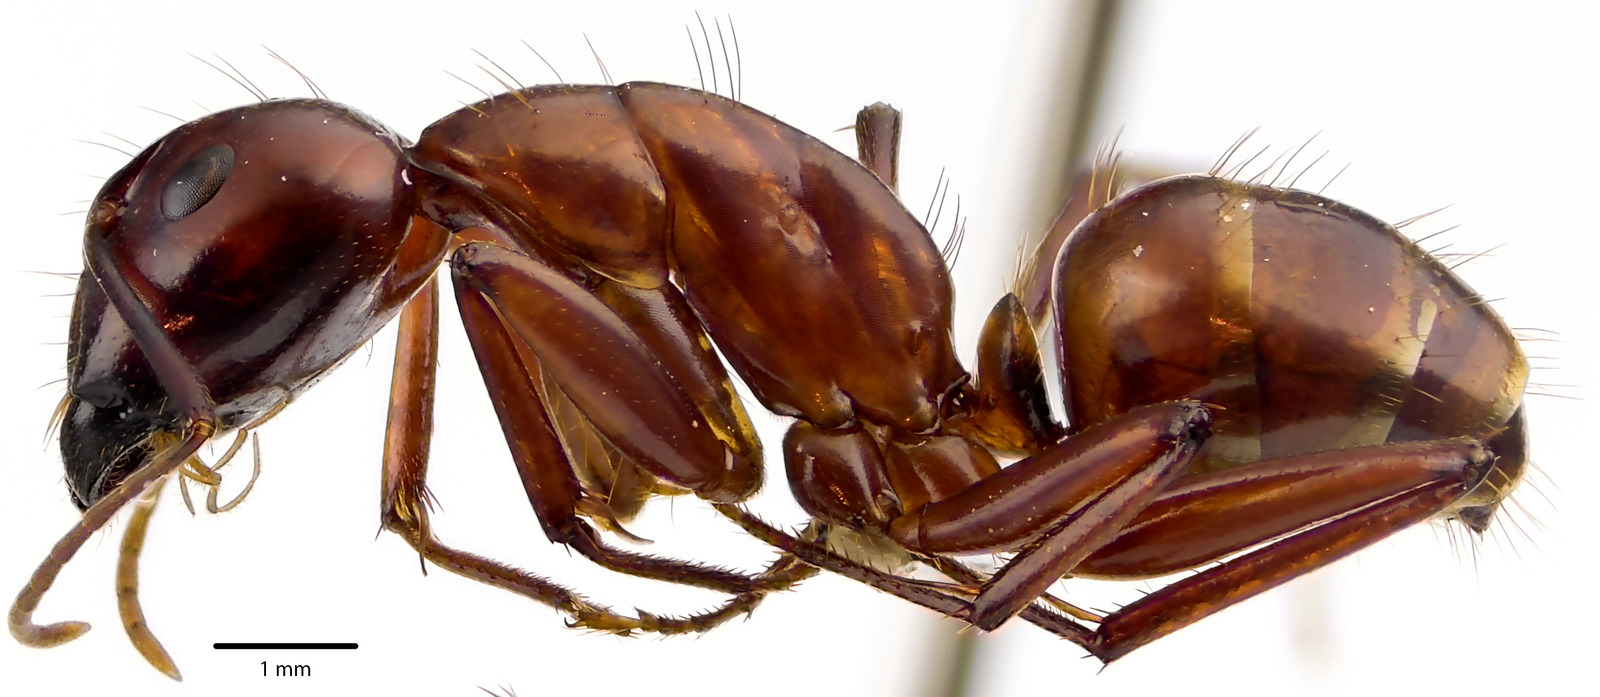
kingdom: Animalia
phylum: Arthropoda
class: Insecta
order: Hymenoptera
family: Formicidae
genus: Camponotus
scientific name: Camponotus castaneus
